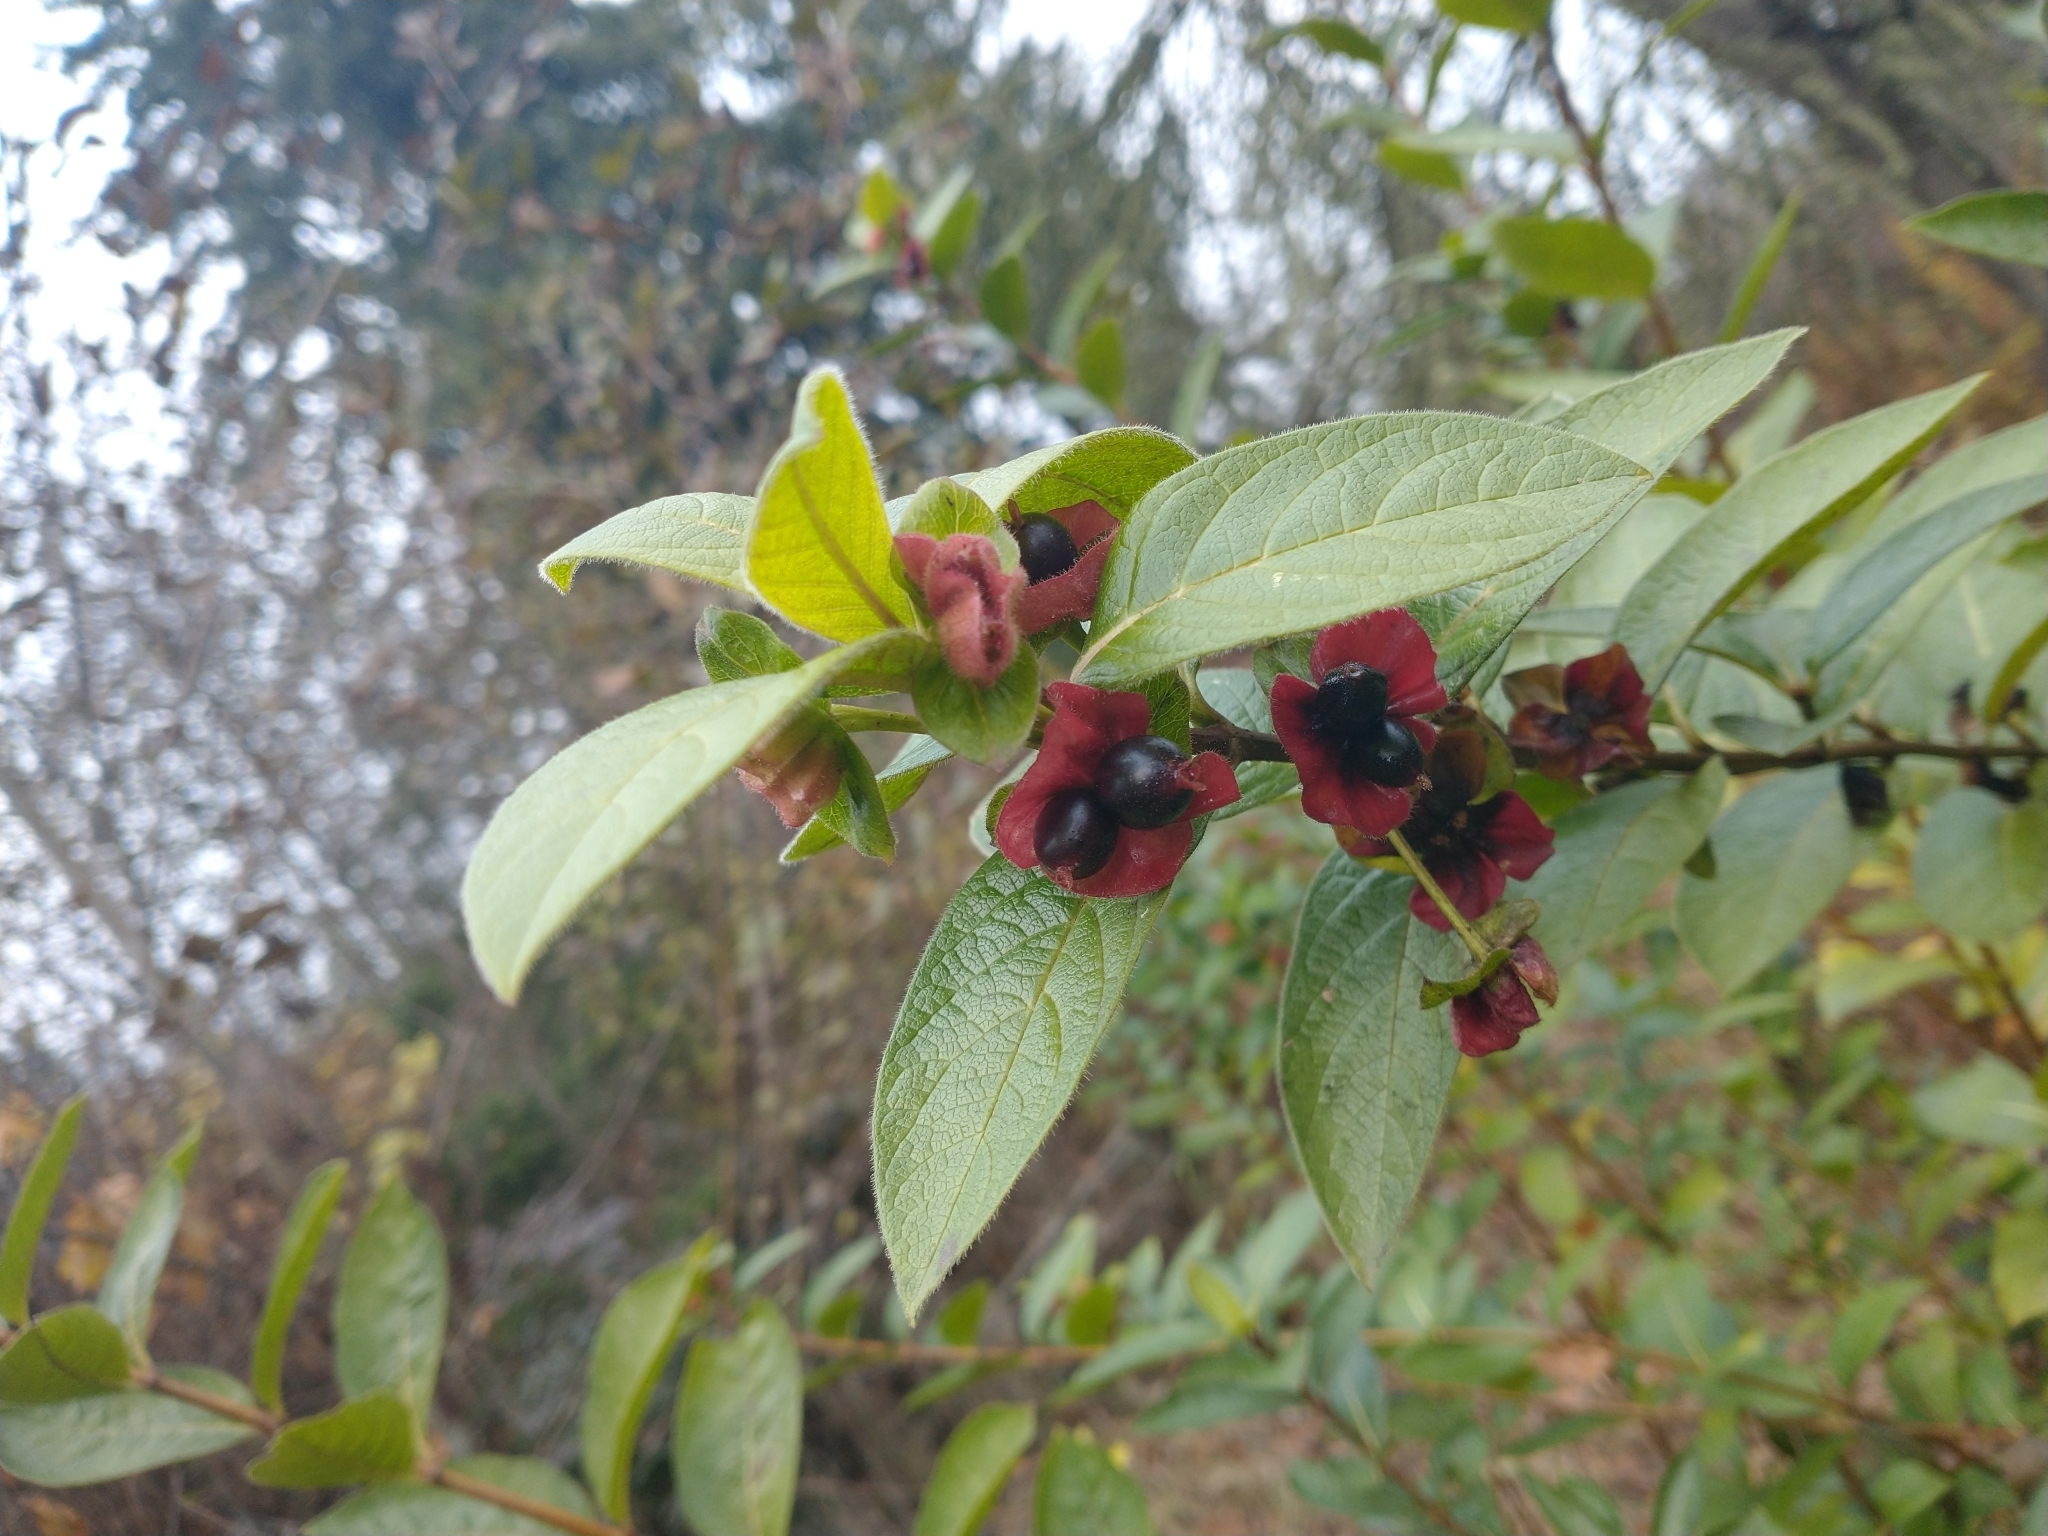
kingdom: Plantae
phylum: Tracheophyta
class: Magnoliopsida
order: Dipsacales
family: Caprifoliaceae
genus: Lonicera
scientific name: Lonicera involucrata
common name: Californian honeysuckle
